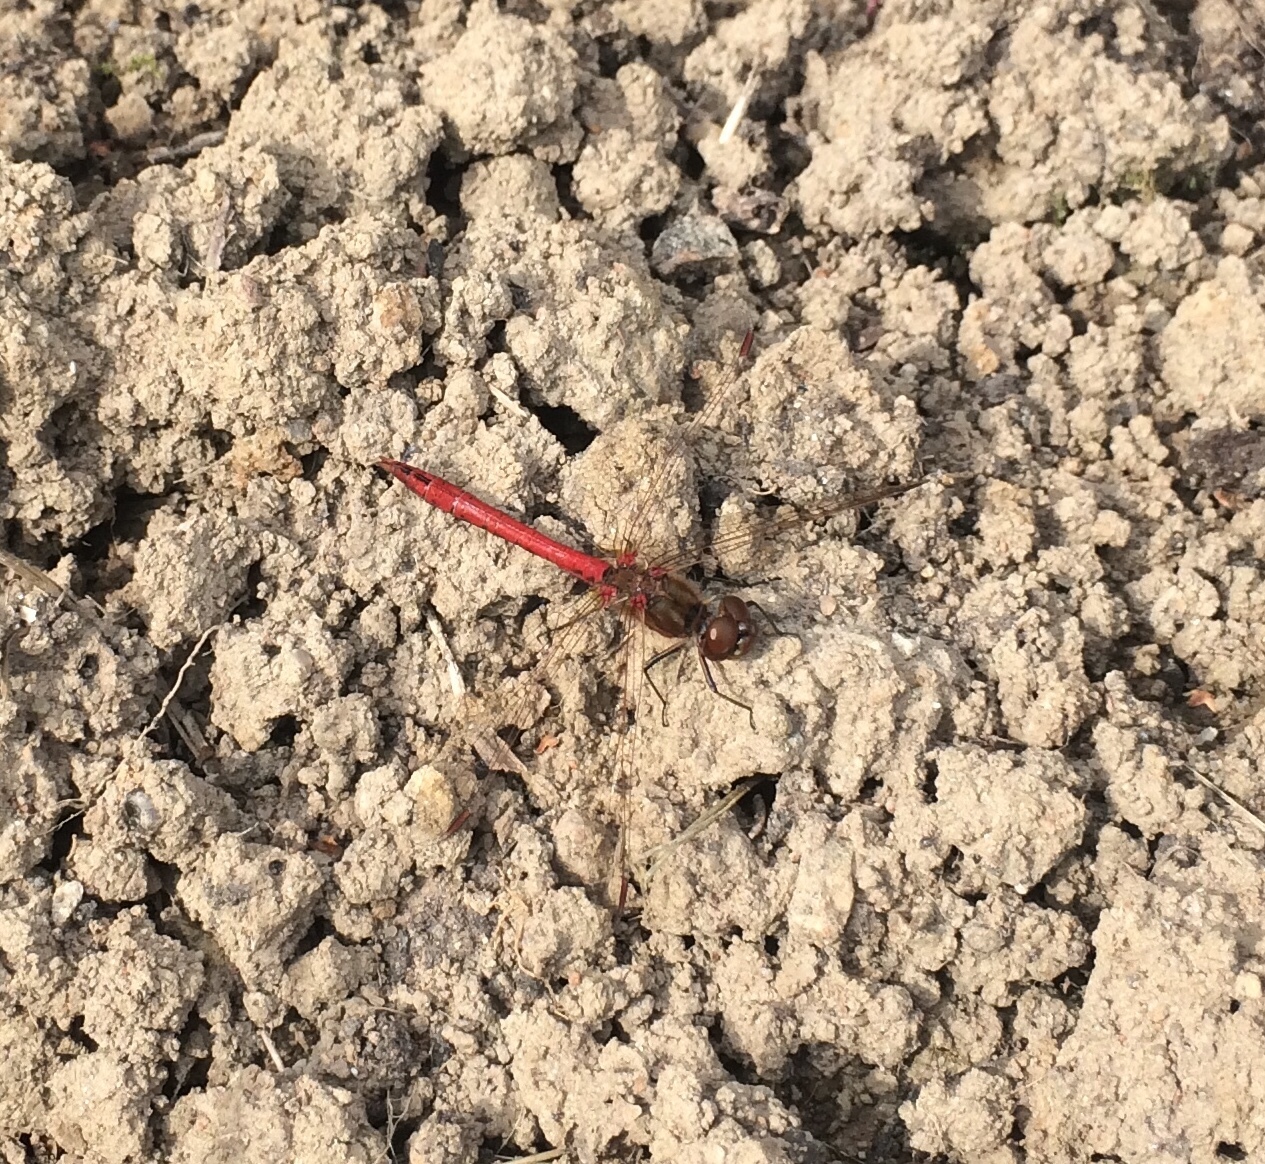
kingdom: Animalia
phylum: Arthropoda
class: Insecta
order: Odonata
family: Libellulidae
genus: Sympetrum
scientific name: Sympetrum vulgatum
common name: Vagrant darter
